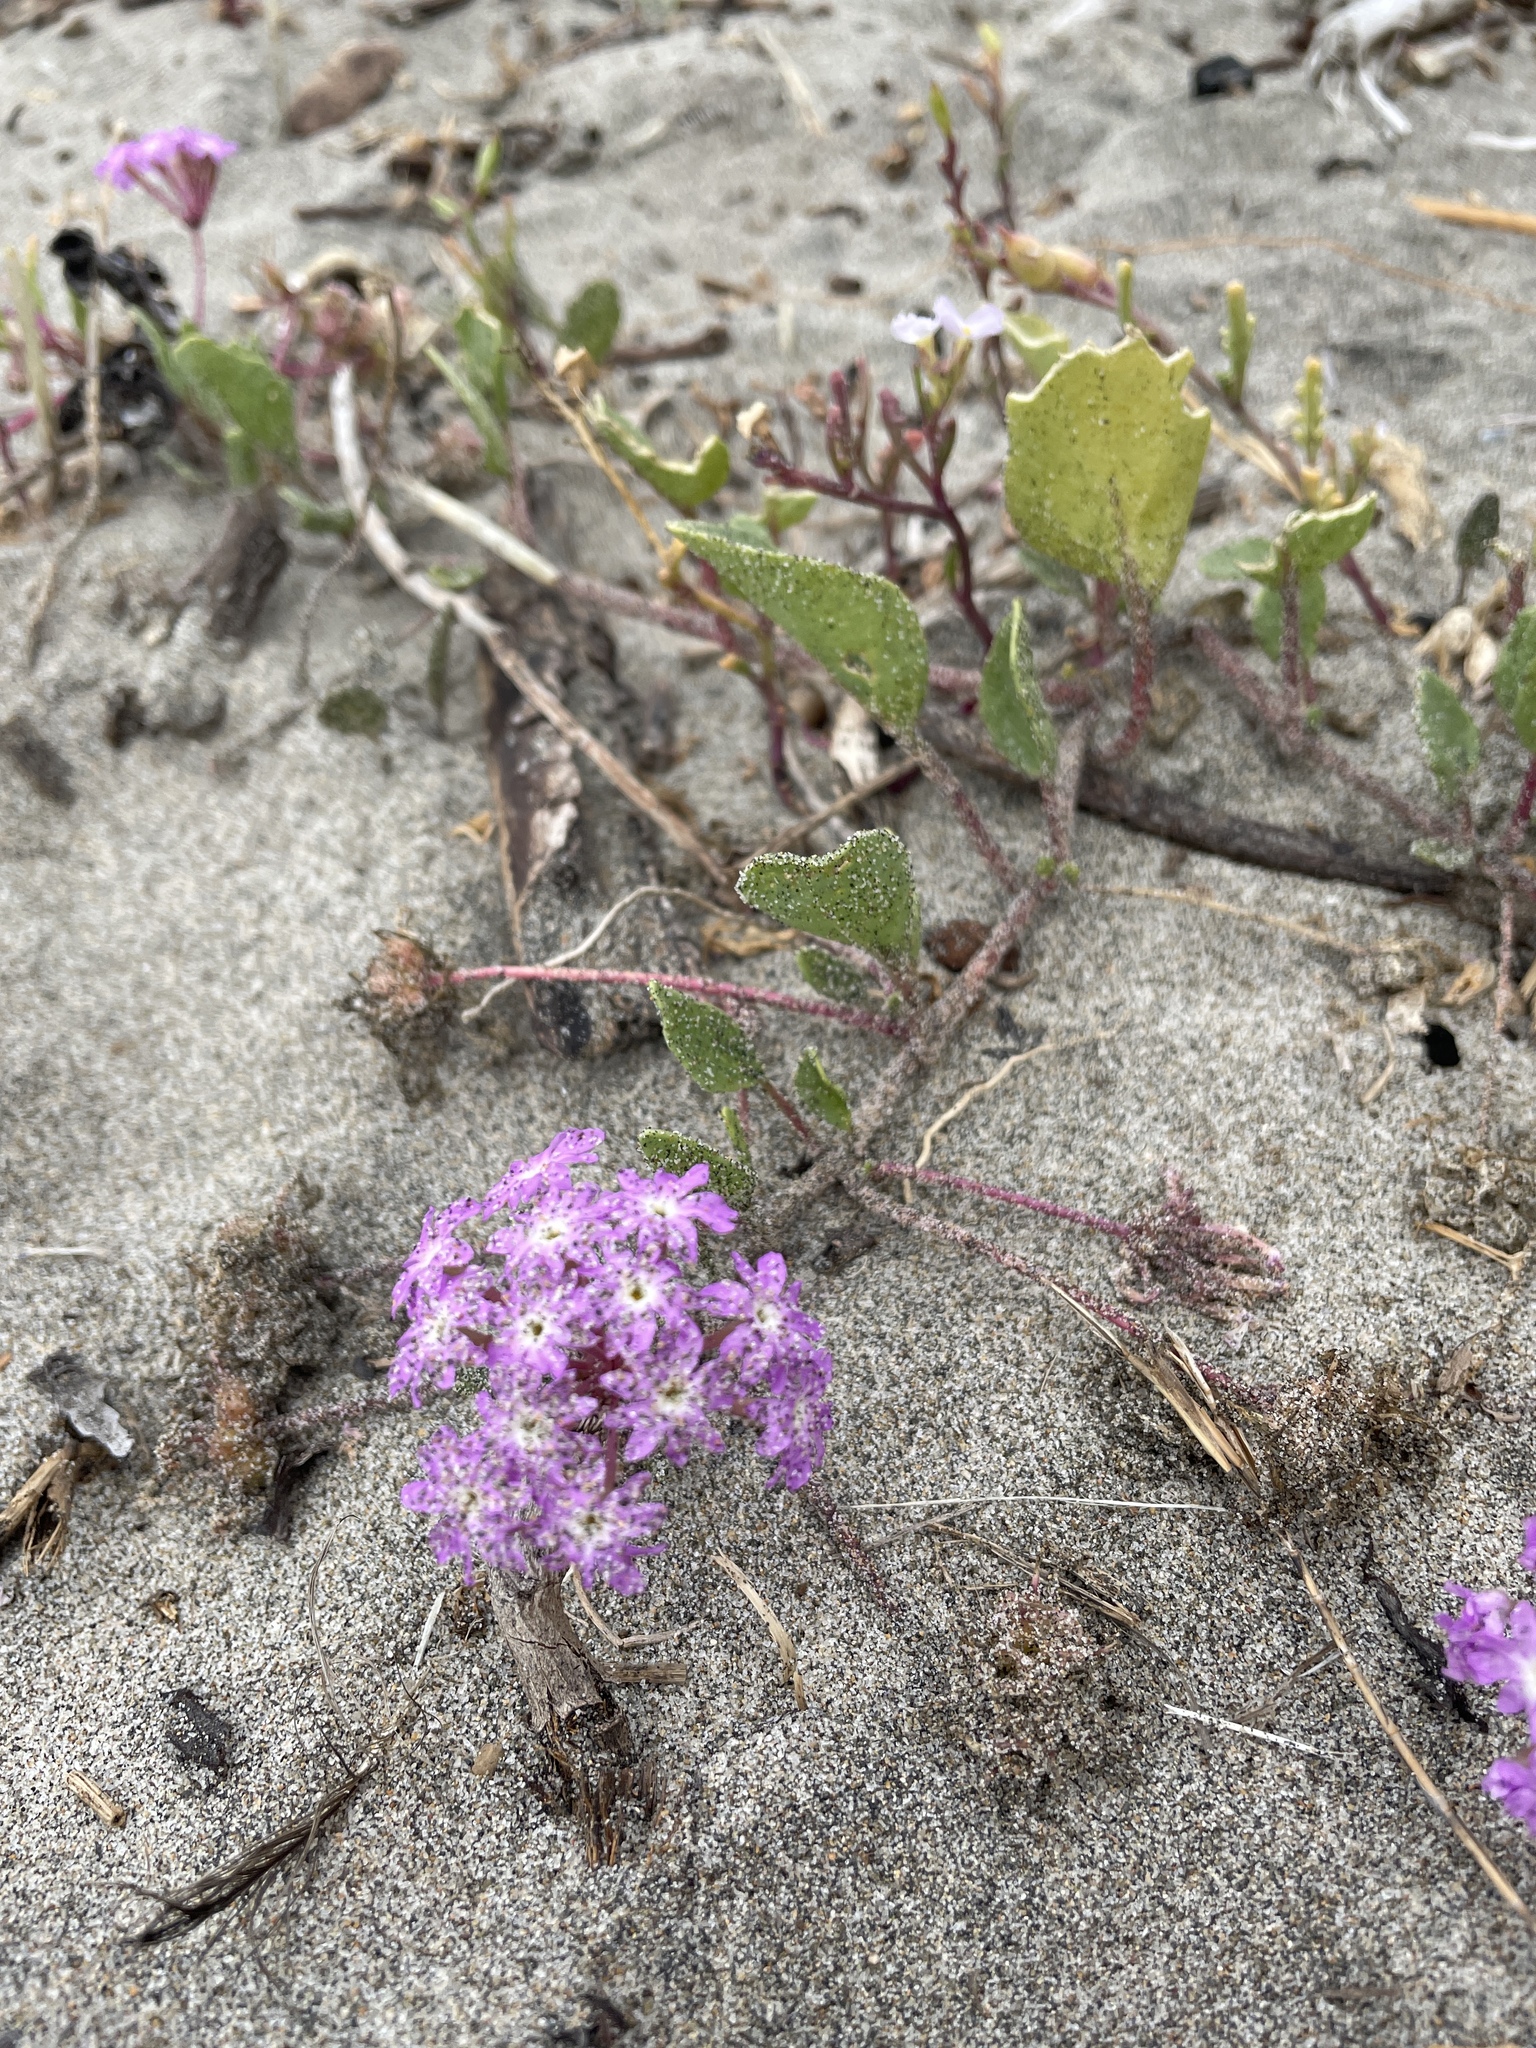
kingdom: Plantae
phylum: Tracheophyta
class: Magnoliopsida
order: Caryophyllales
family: Nyctaginaceae
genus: Abronia
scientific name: Abronia umbellata
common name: Sand-verbena
